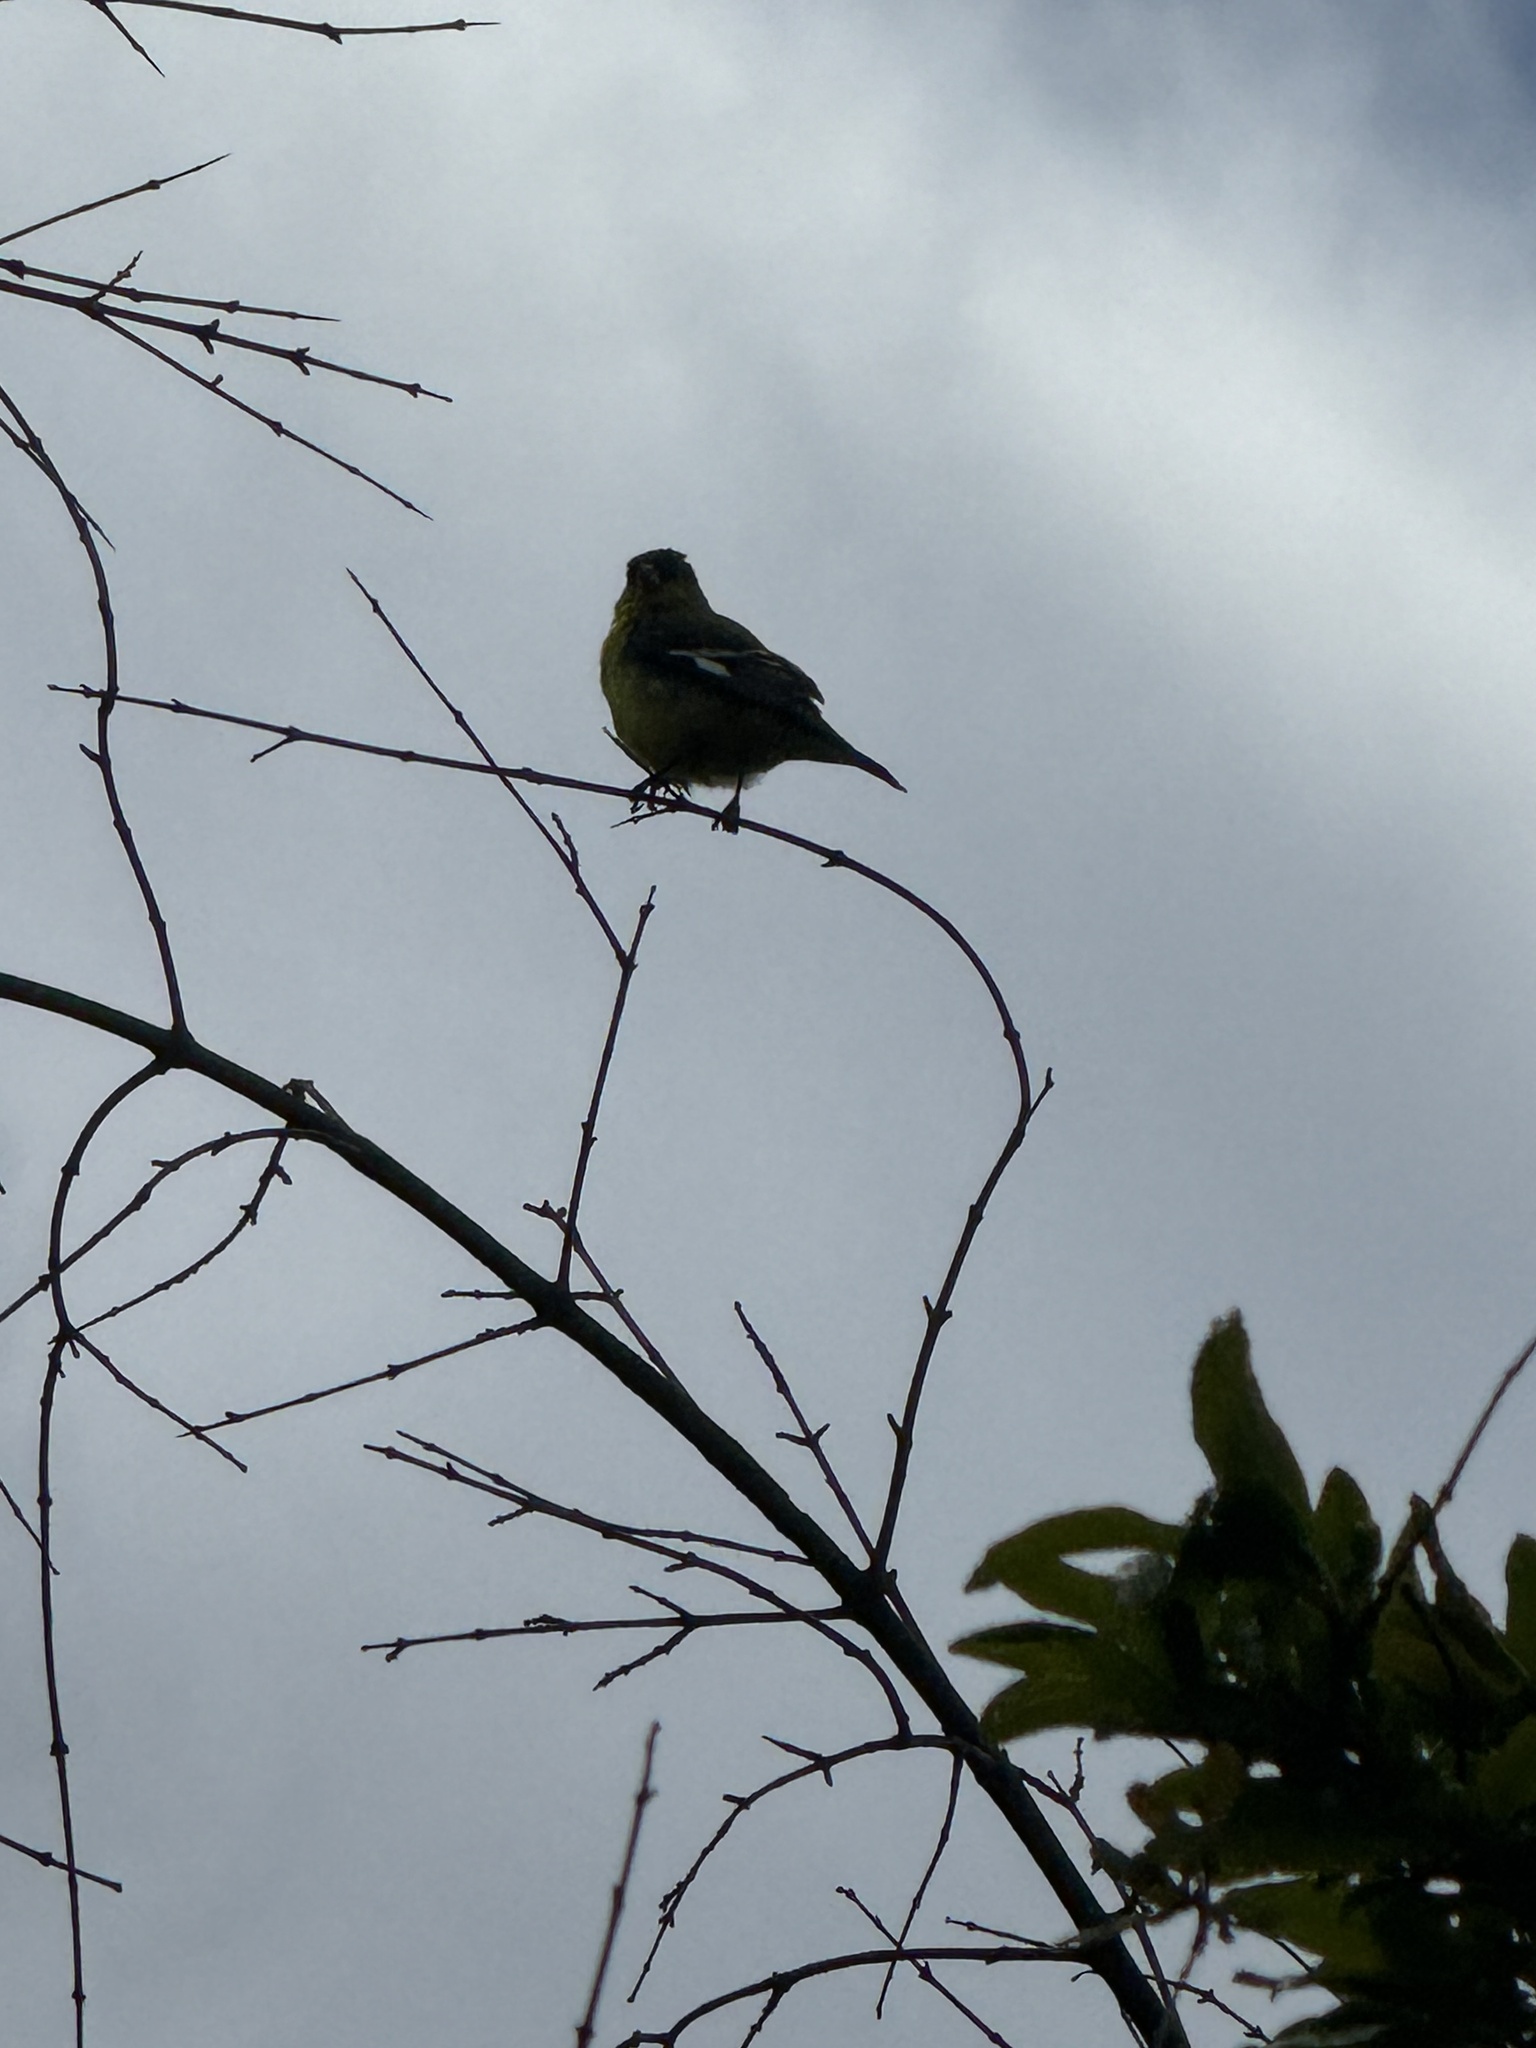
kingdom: Animalia
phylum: Chordata
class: Aves
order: Passeriformes
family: Fringillidae
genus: Spinus
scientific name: Spinus psaltria
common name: Lesser goldfinch
